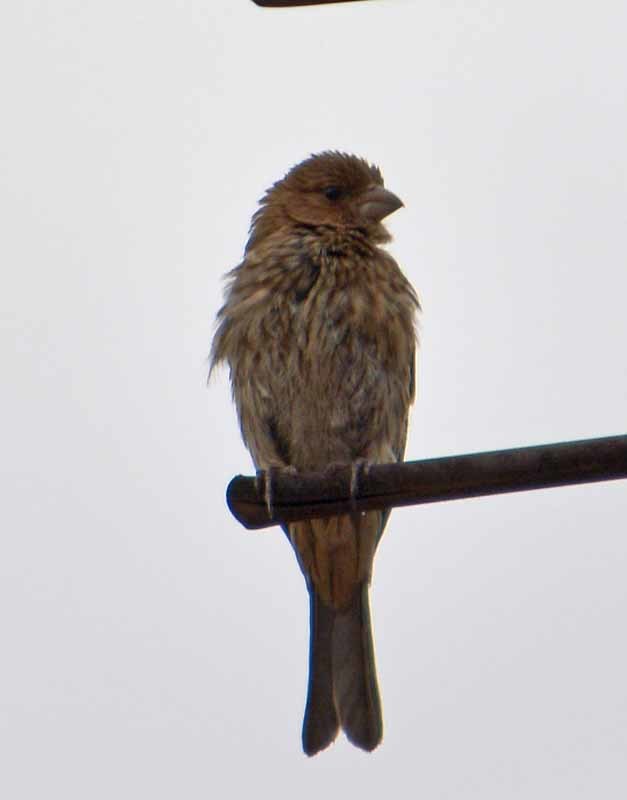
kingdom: Animalia
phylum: Chordata
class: Aves
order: Passeriformes
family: Fringillidae
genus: Haemorhous
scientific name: Haemorhous mexicanus
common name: House finch
